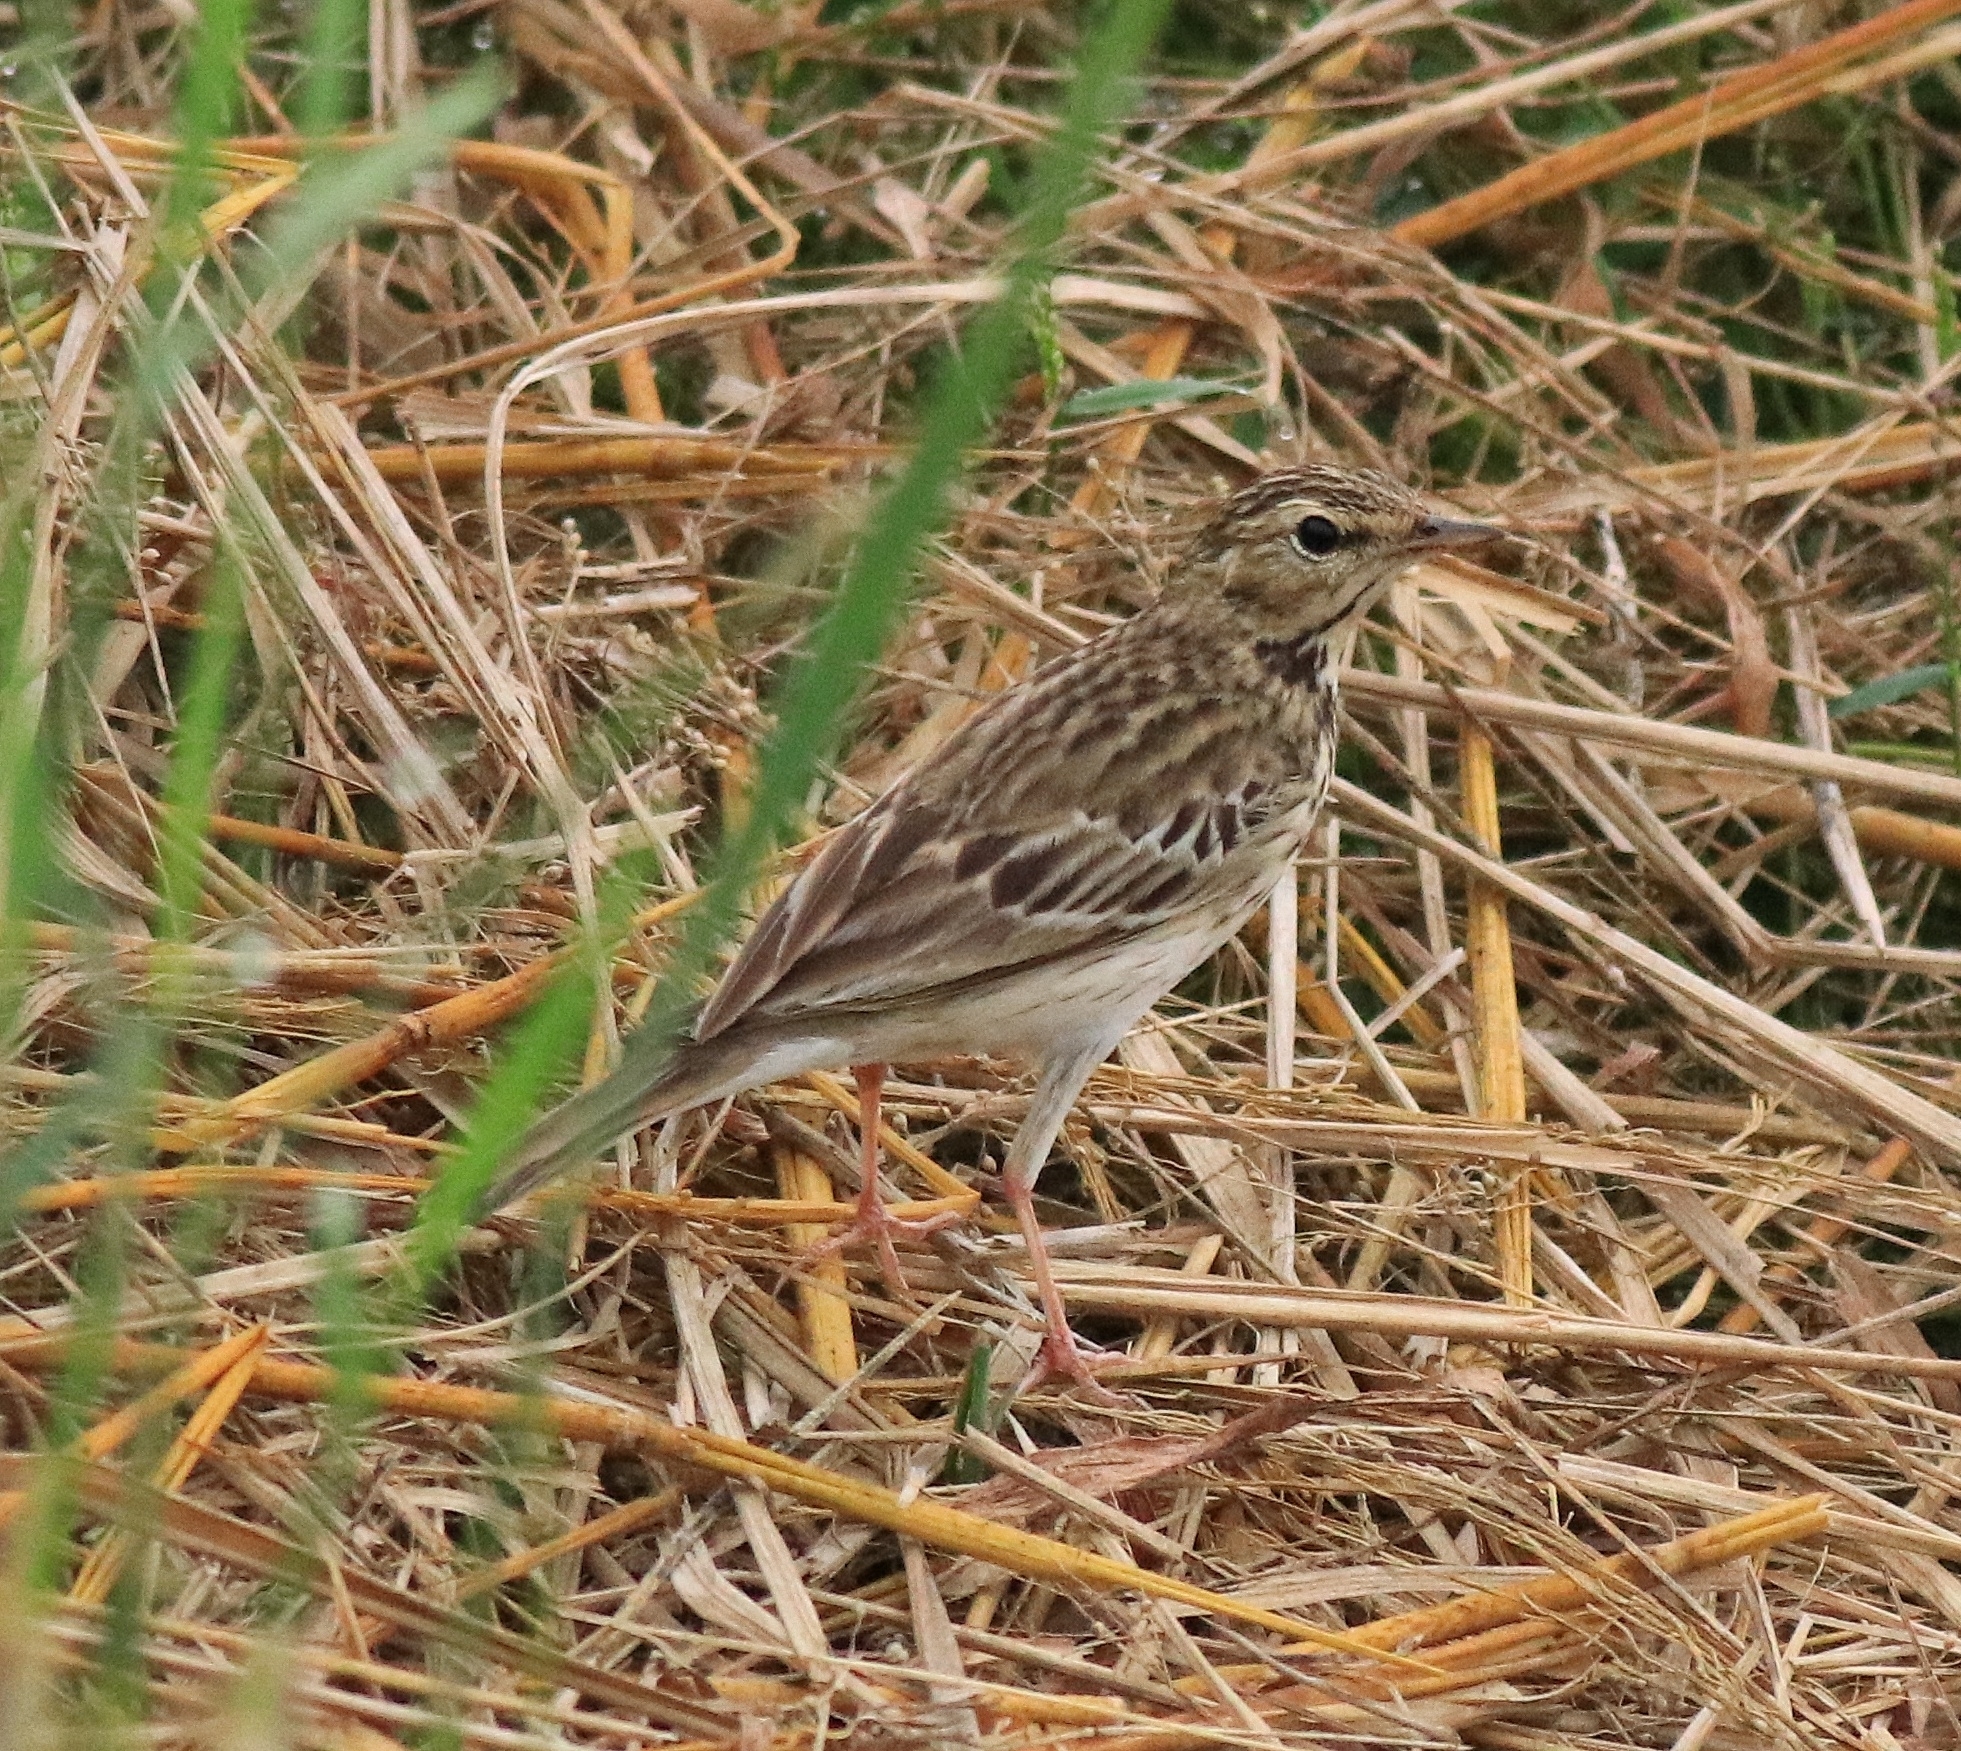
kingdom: Animalia
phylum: Chordata
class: Aves
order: Passeriformes
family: Motacillidae
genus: Anthus
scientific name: Anthus trivialis
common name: Tree pipit
